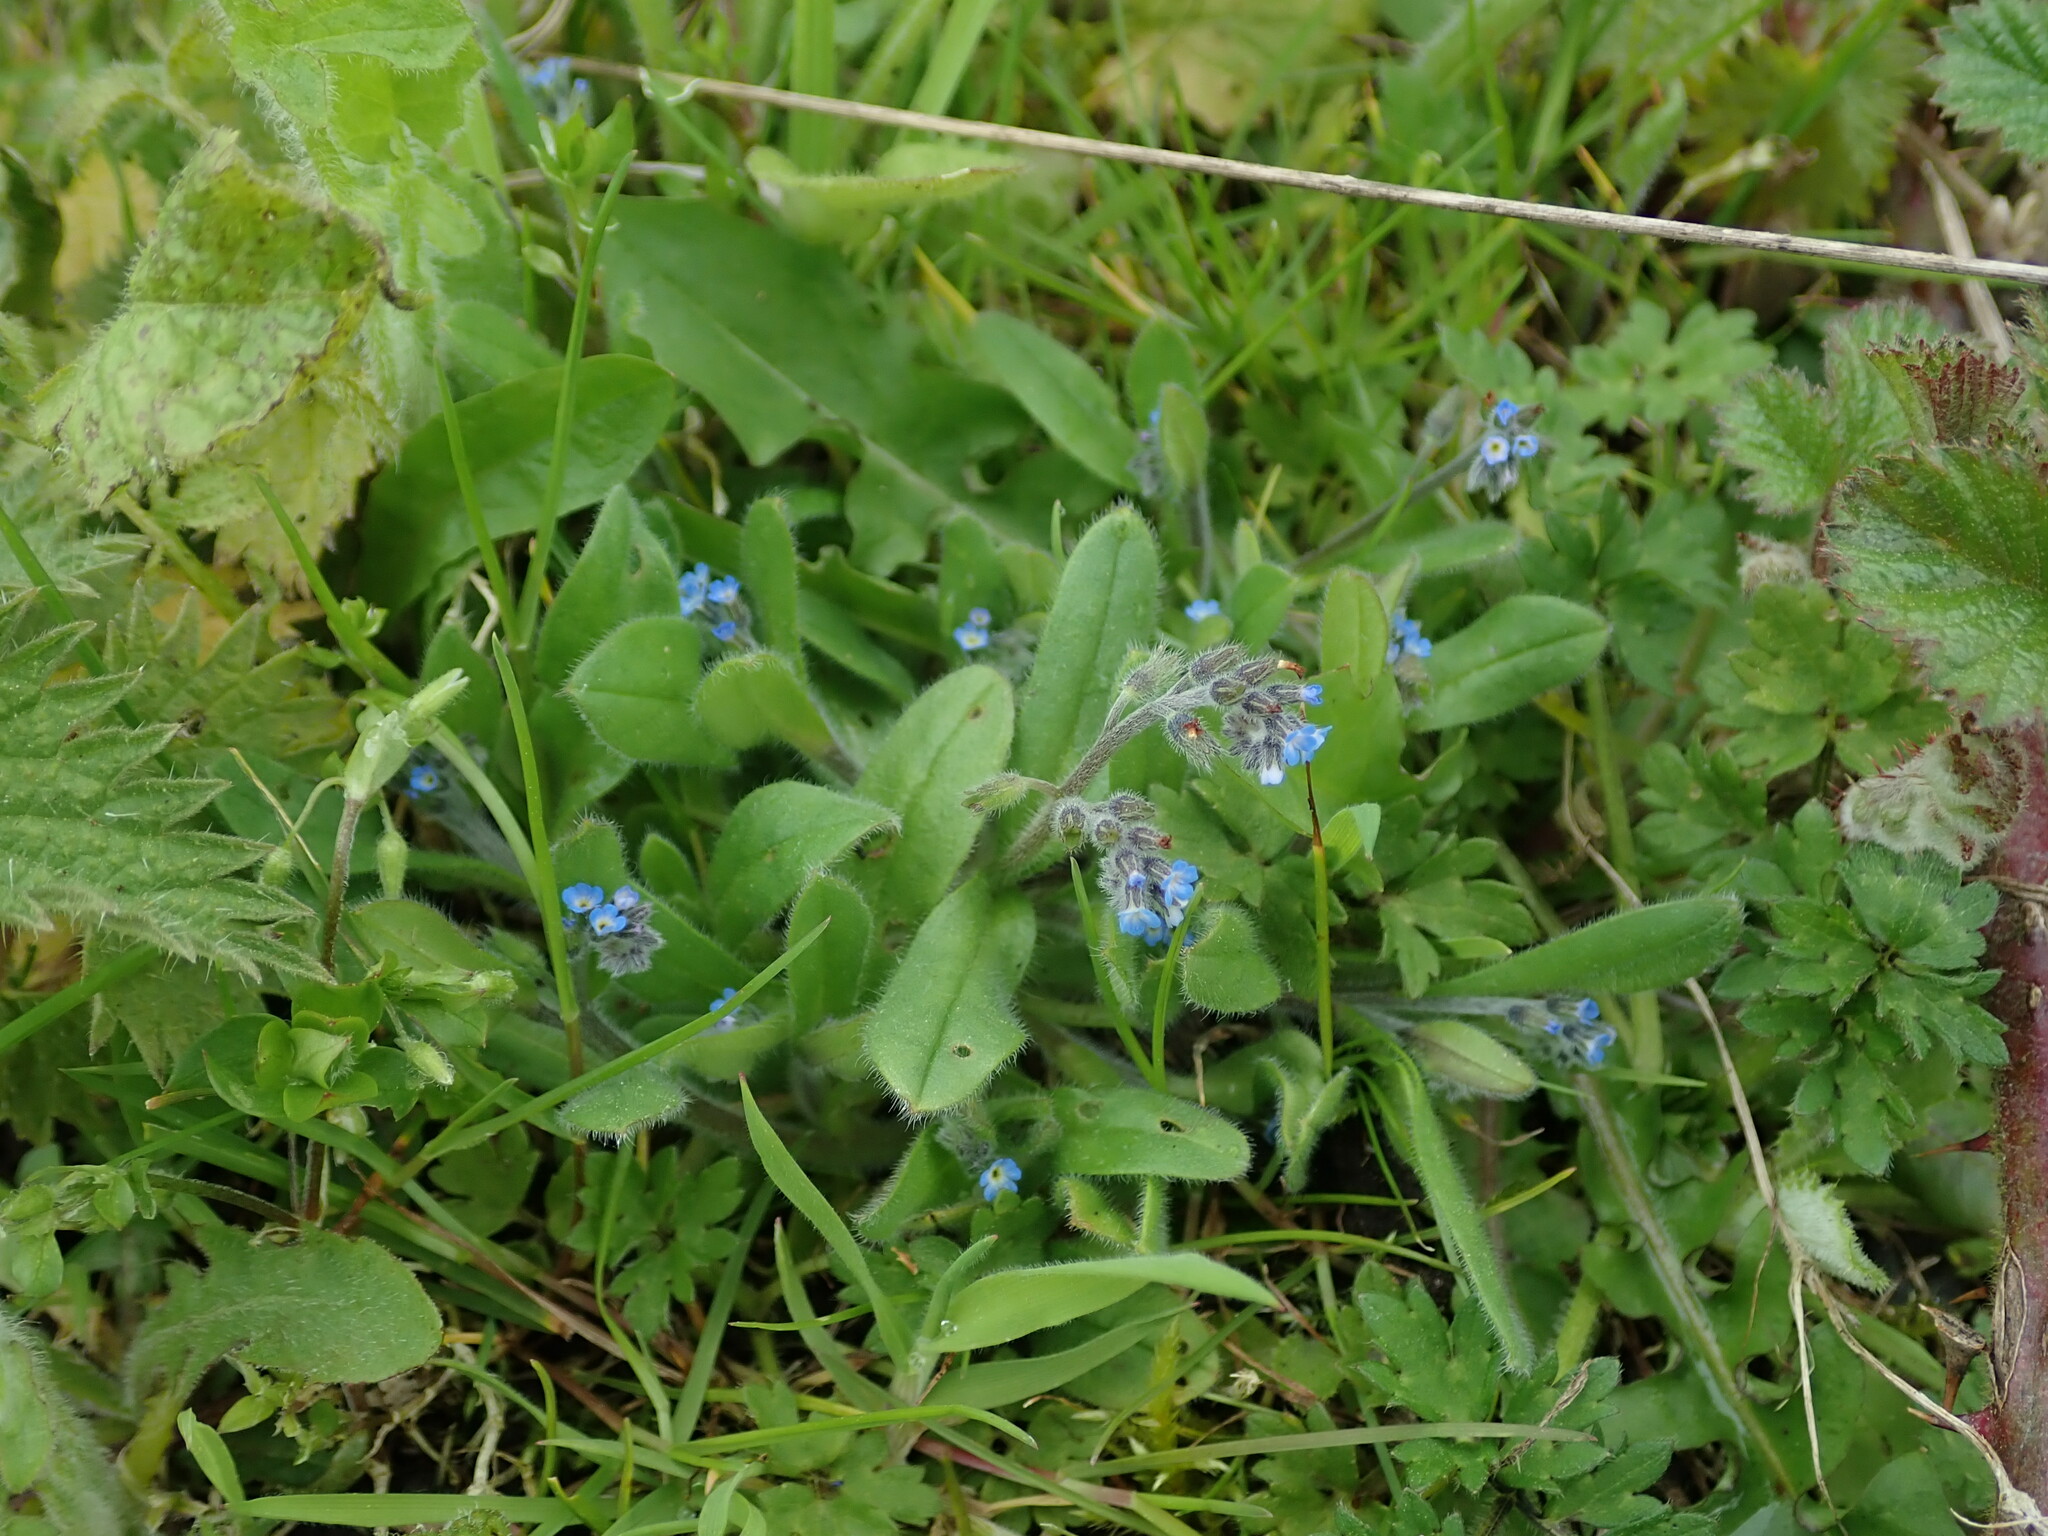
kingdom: Plantae
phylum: Tracheophyta
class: Magnoliopsida
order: Boraginales
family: Boraginaceae
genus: Myosotis
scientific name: Myosotis arvensis
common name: Field forget-me-not
